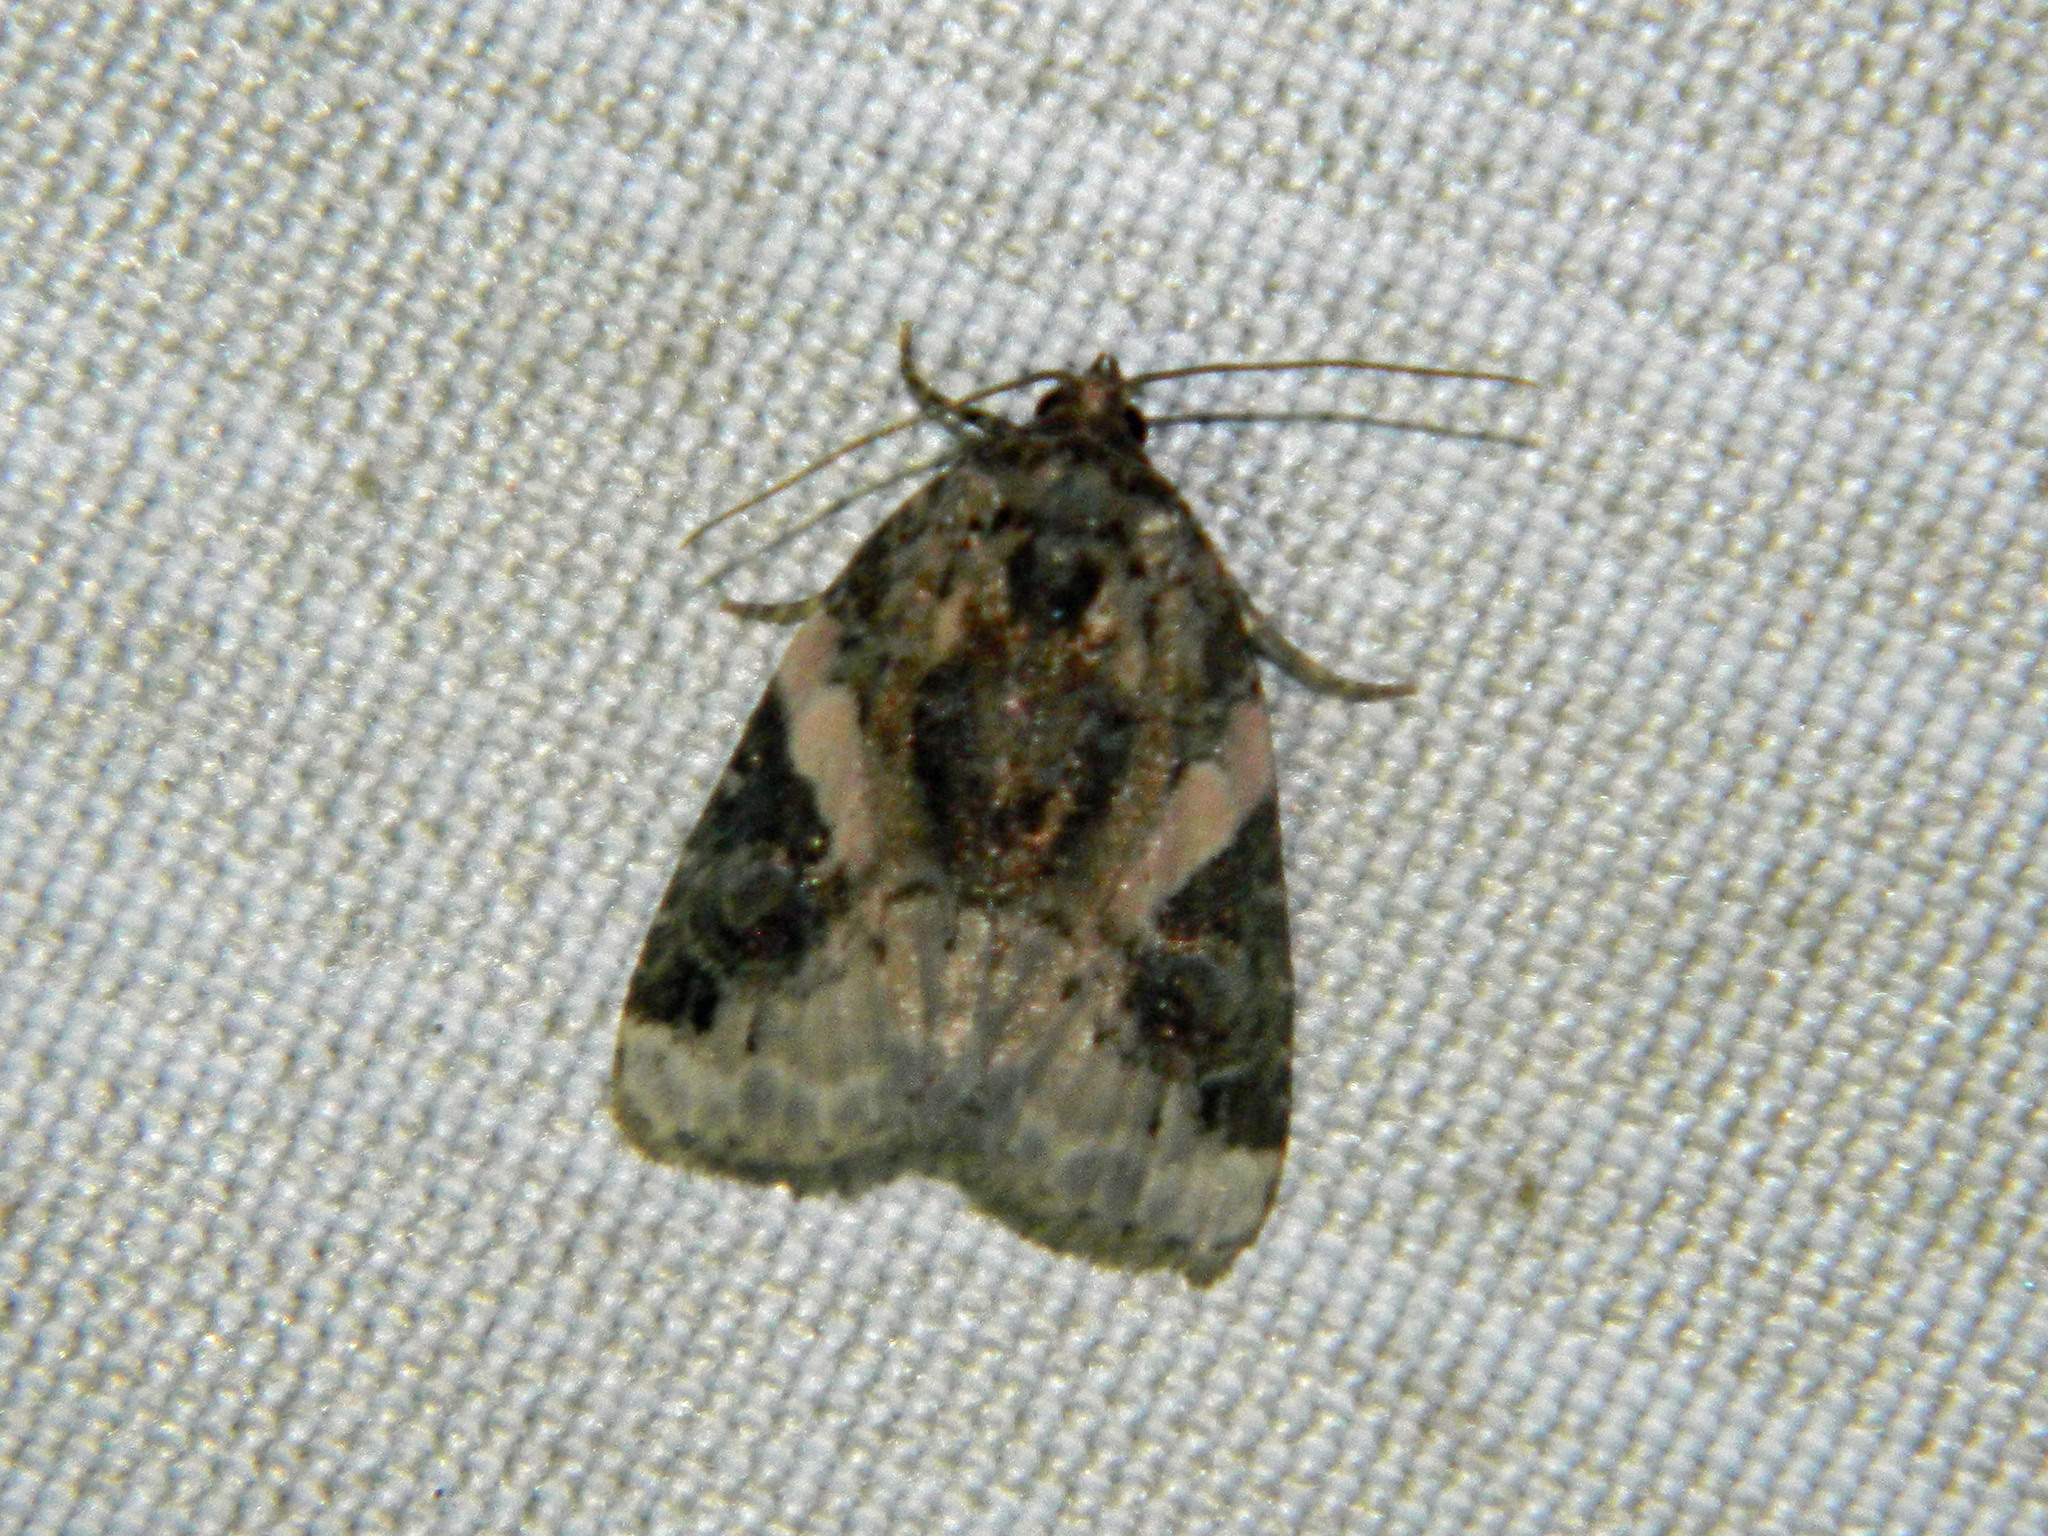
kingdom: Animalia
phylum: Arthropoda
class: Insecta
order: Lepidoptera
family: Noctuidae
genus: Pseudeustrotia
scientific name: Pseudeustrotia carneola
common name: Pink-barred lithacodia moth
